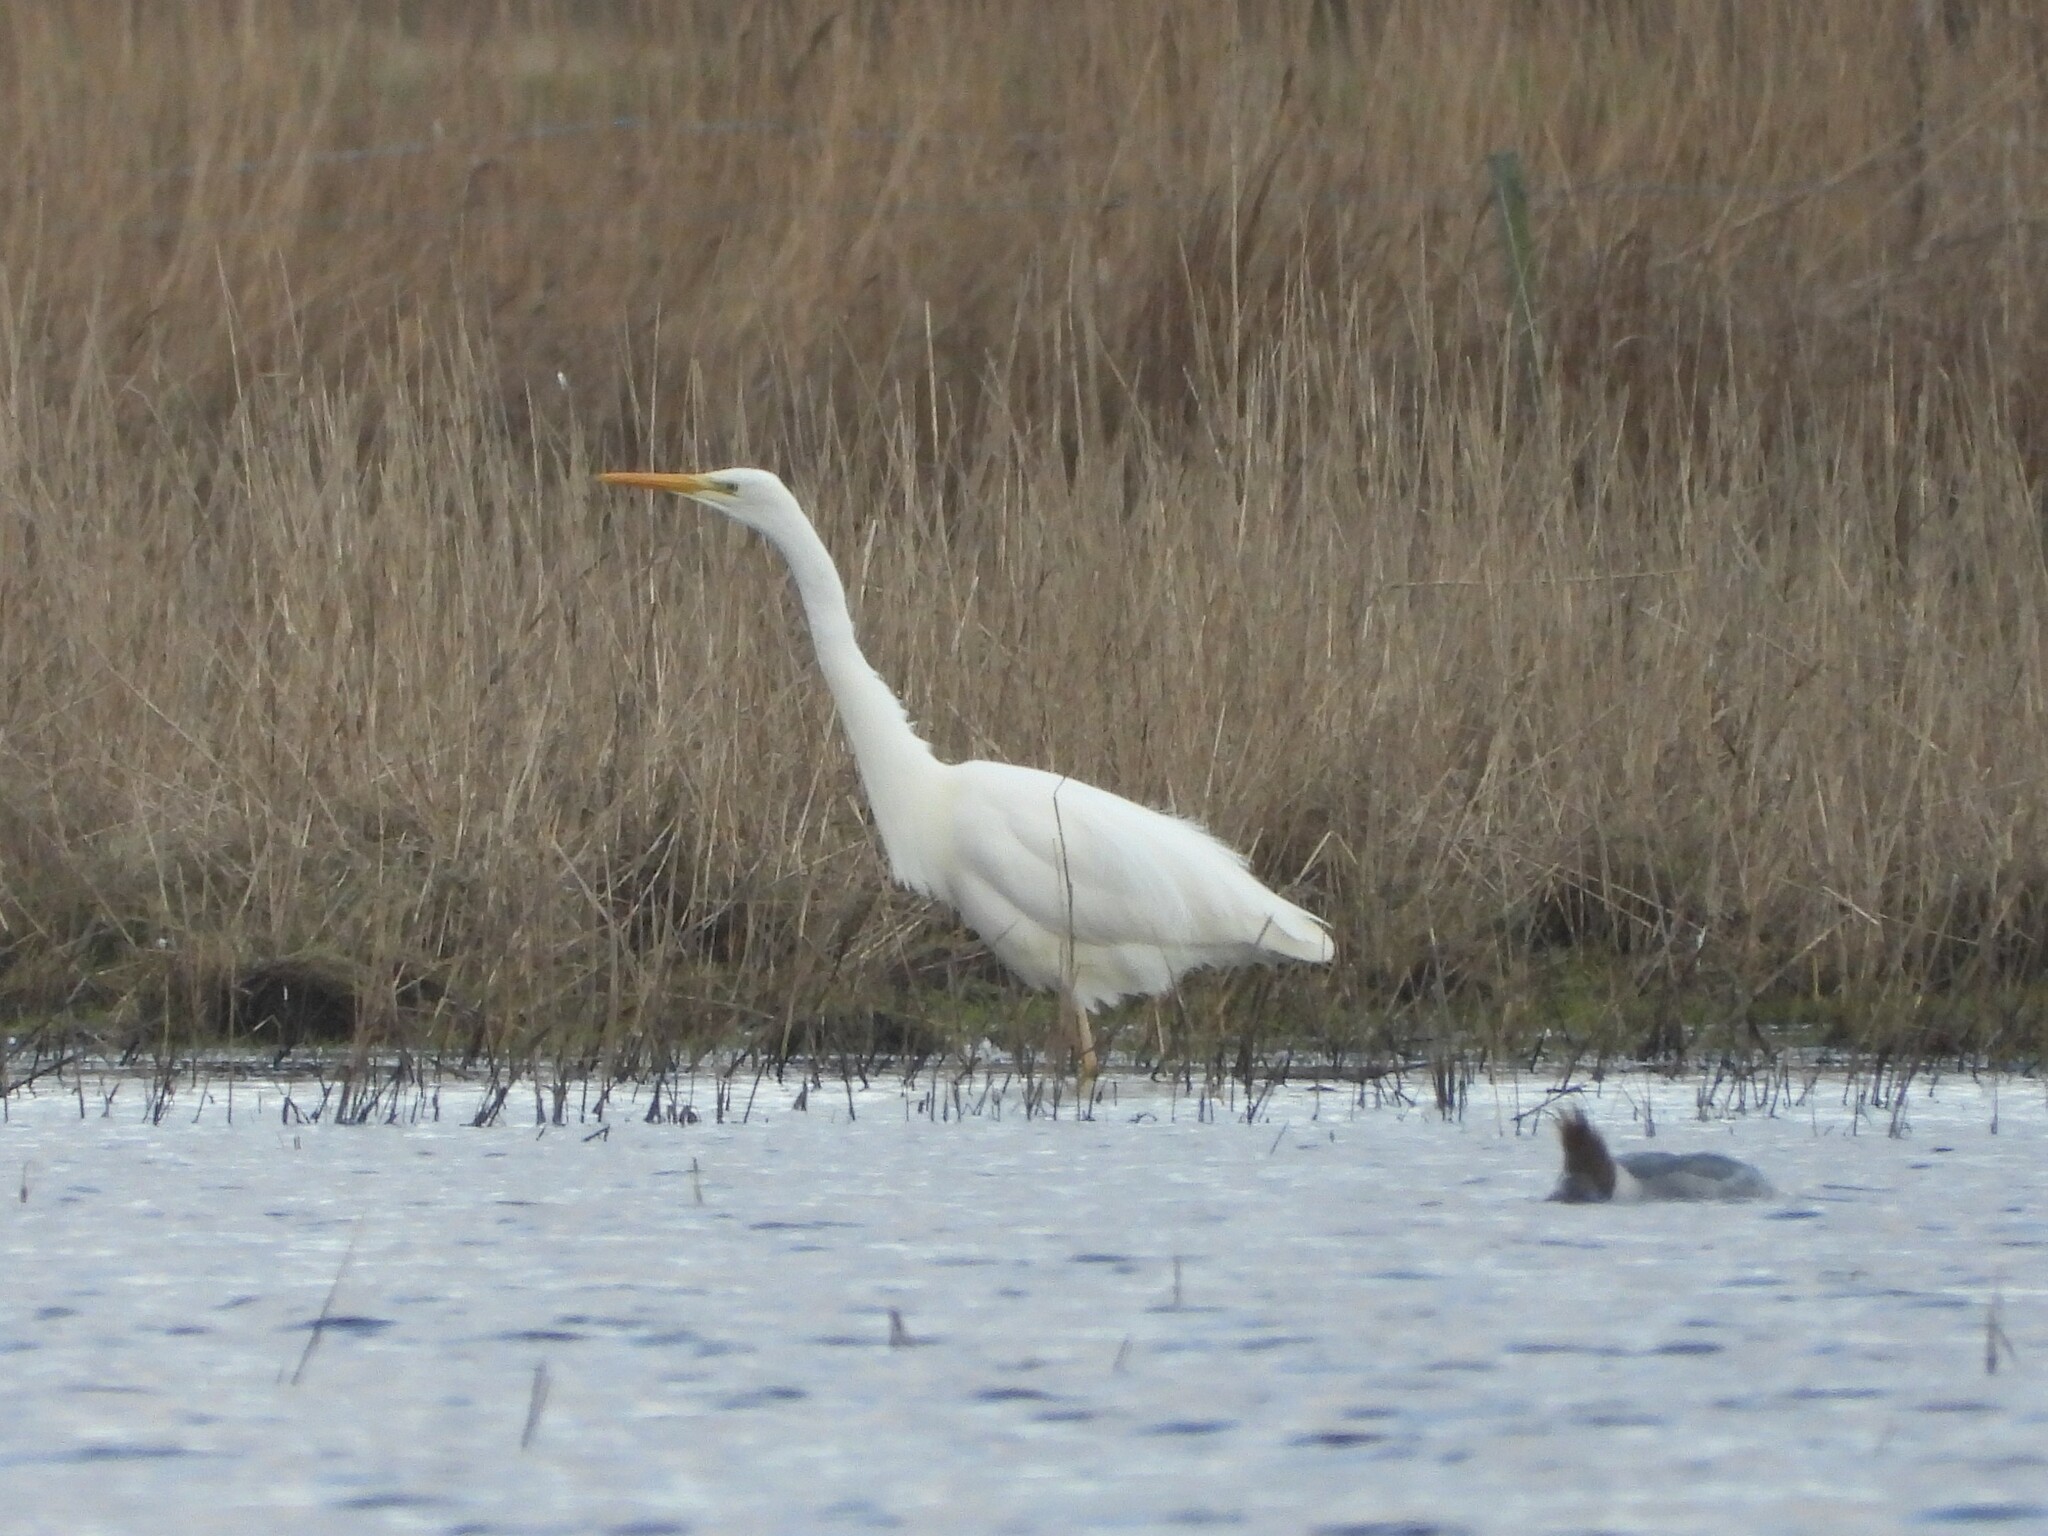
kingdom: Animalia
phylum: Chordata
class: Aves
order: Pelecaniformes
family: Ardeidae
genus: Ardea
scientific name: Ardea alba
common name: Great egret
